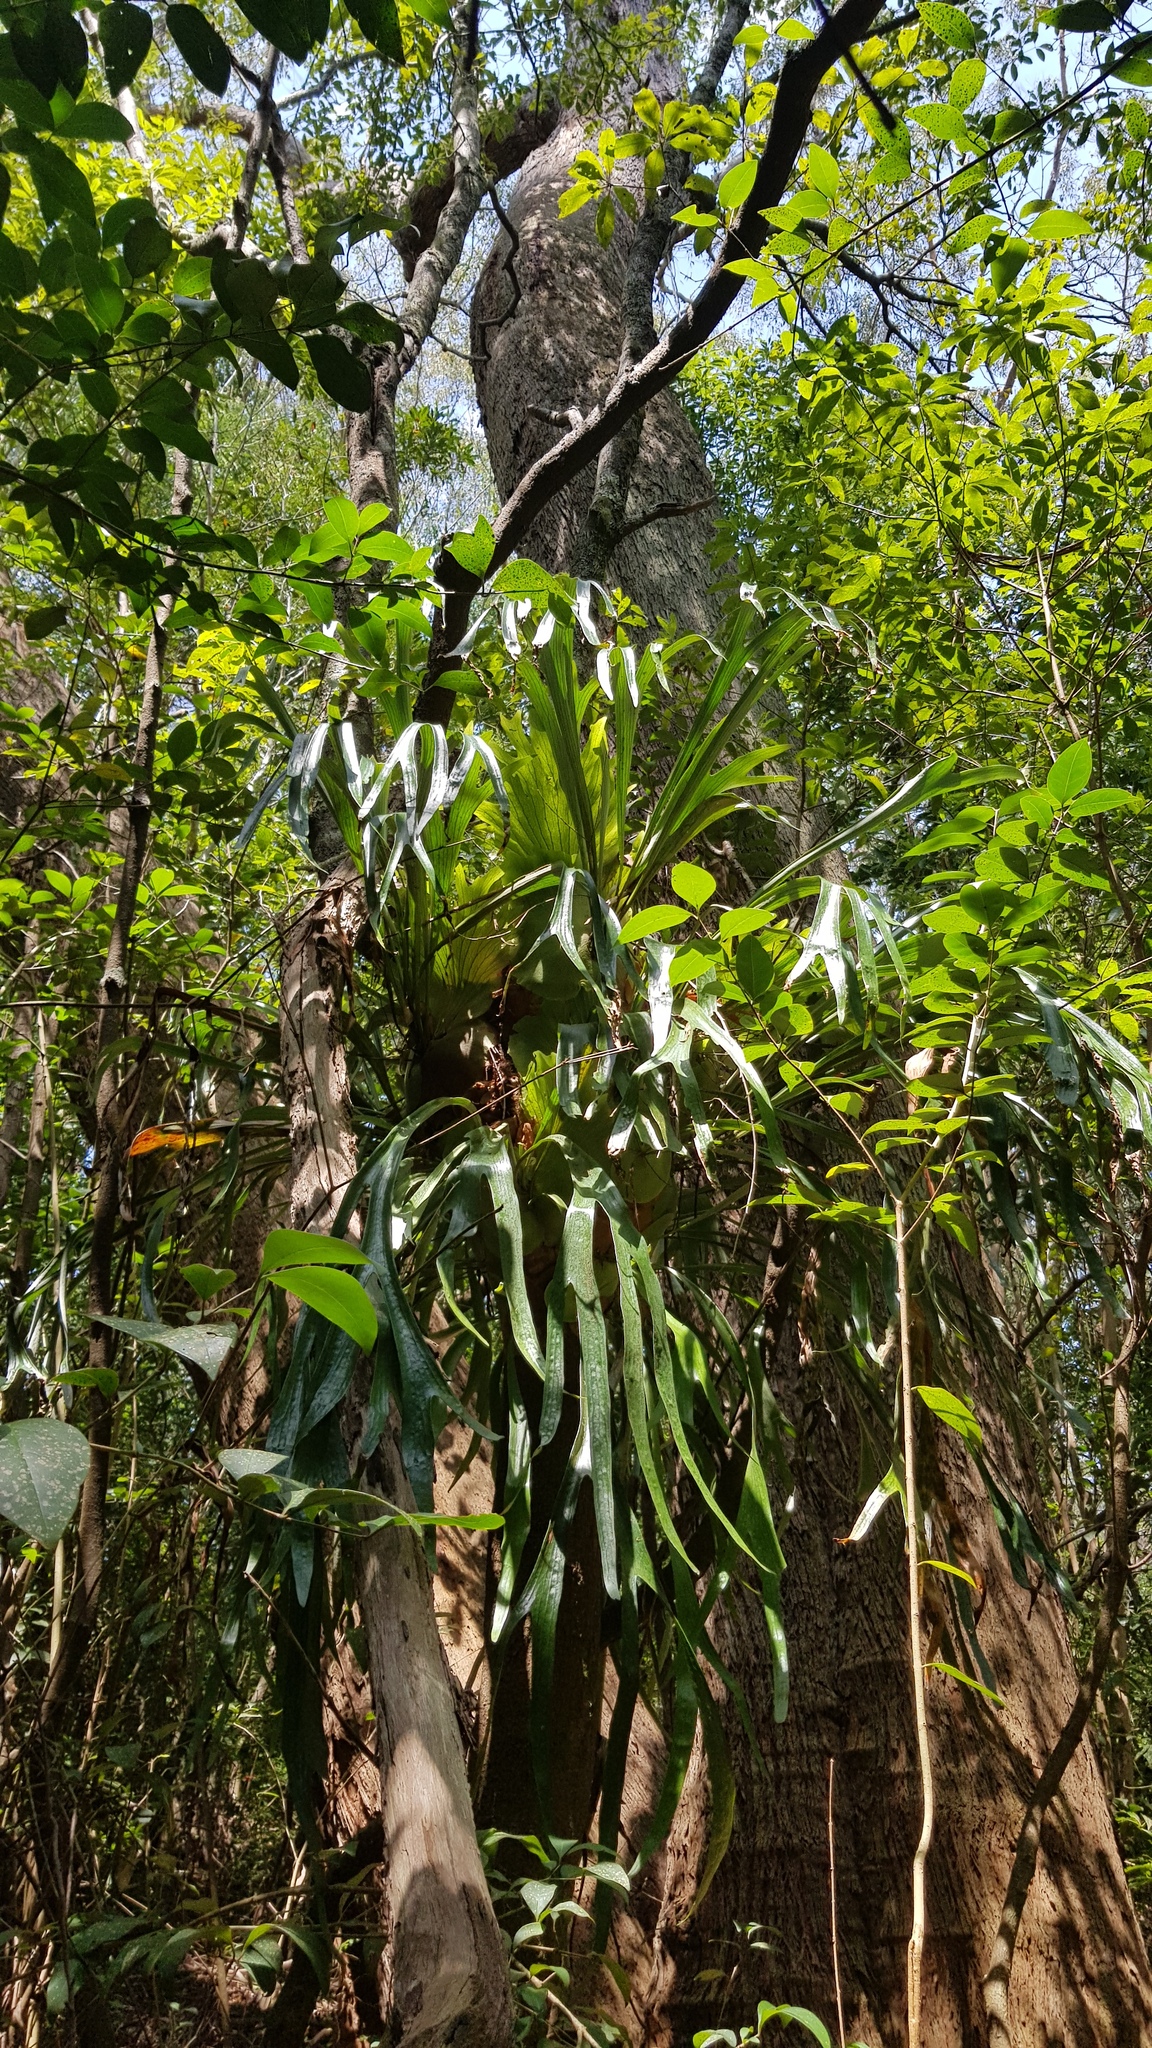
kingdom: Plantae
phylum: Tracheophyta
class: Polypodiopsida
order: Polypodiales
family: Polypodiaceae
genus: Platycerium
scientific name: Platycerium bifurcatum
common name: Elkhorn fern
